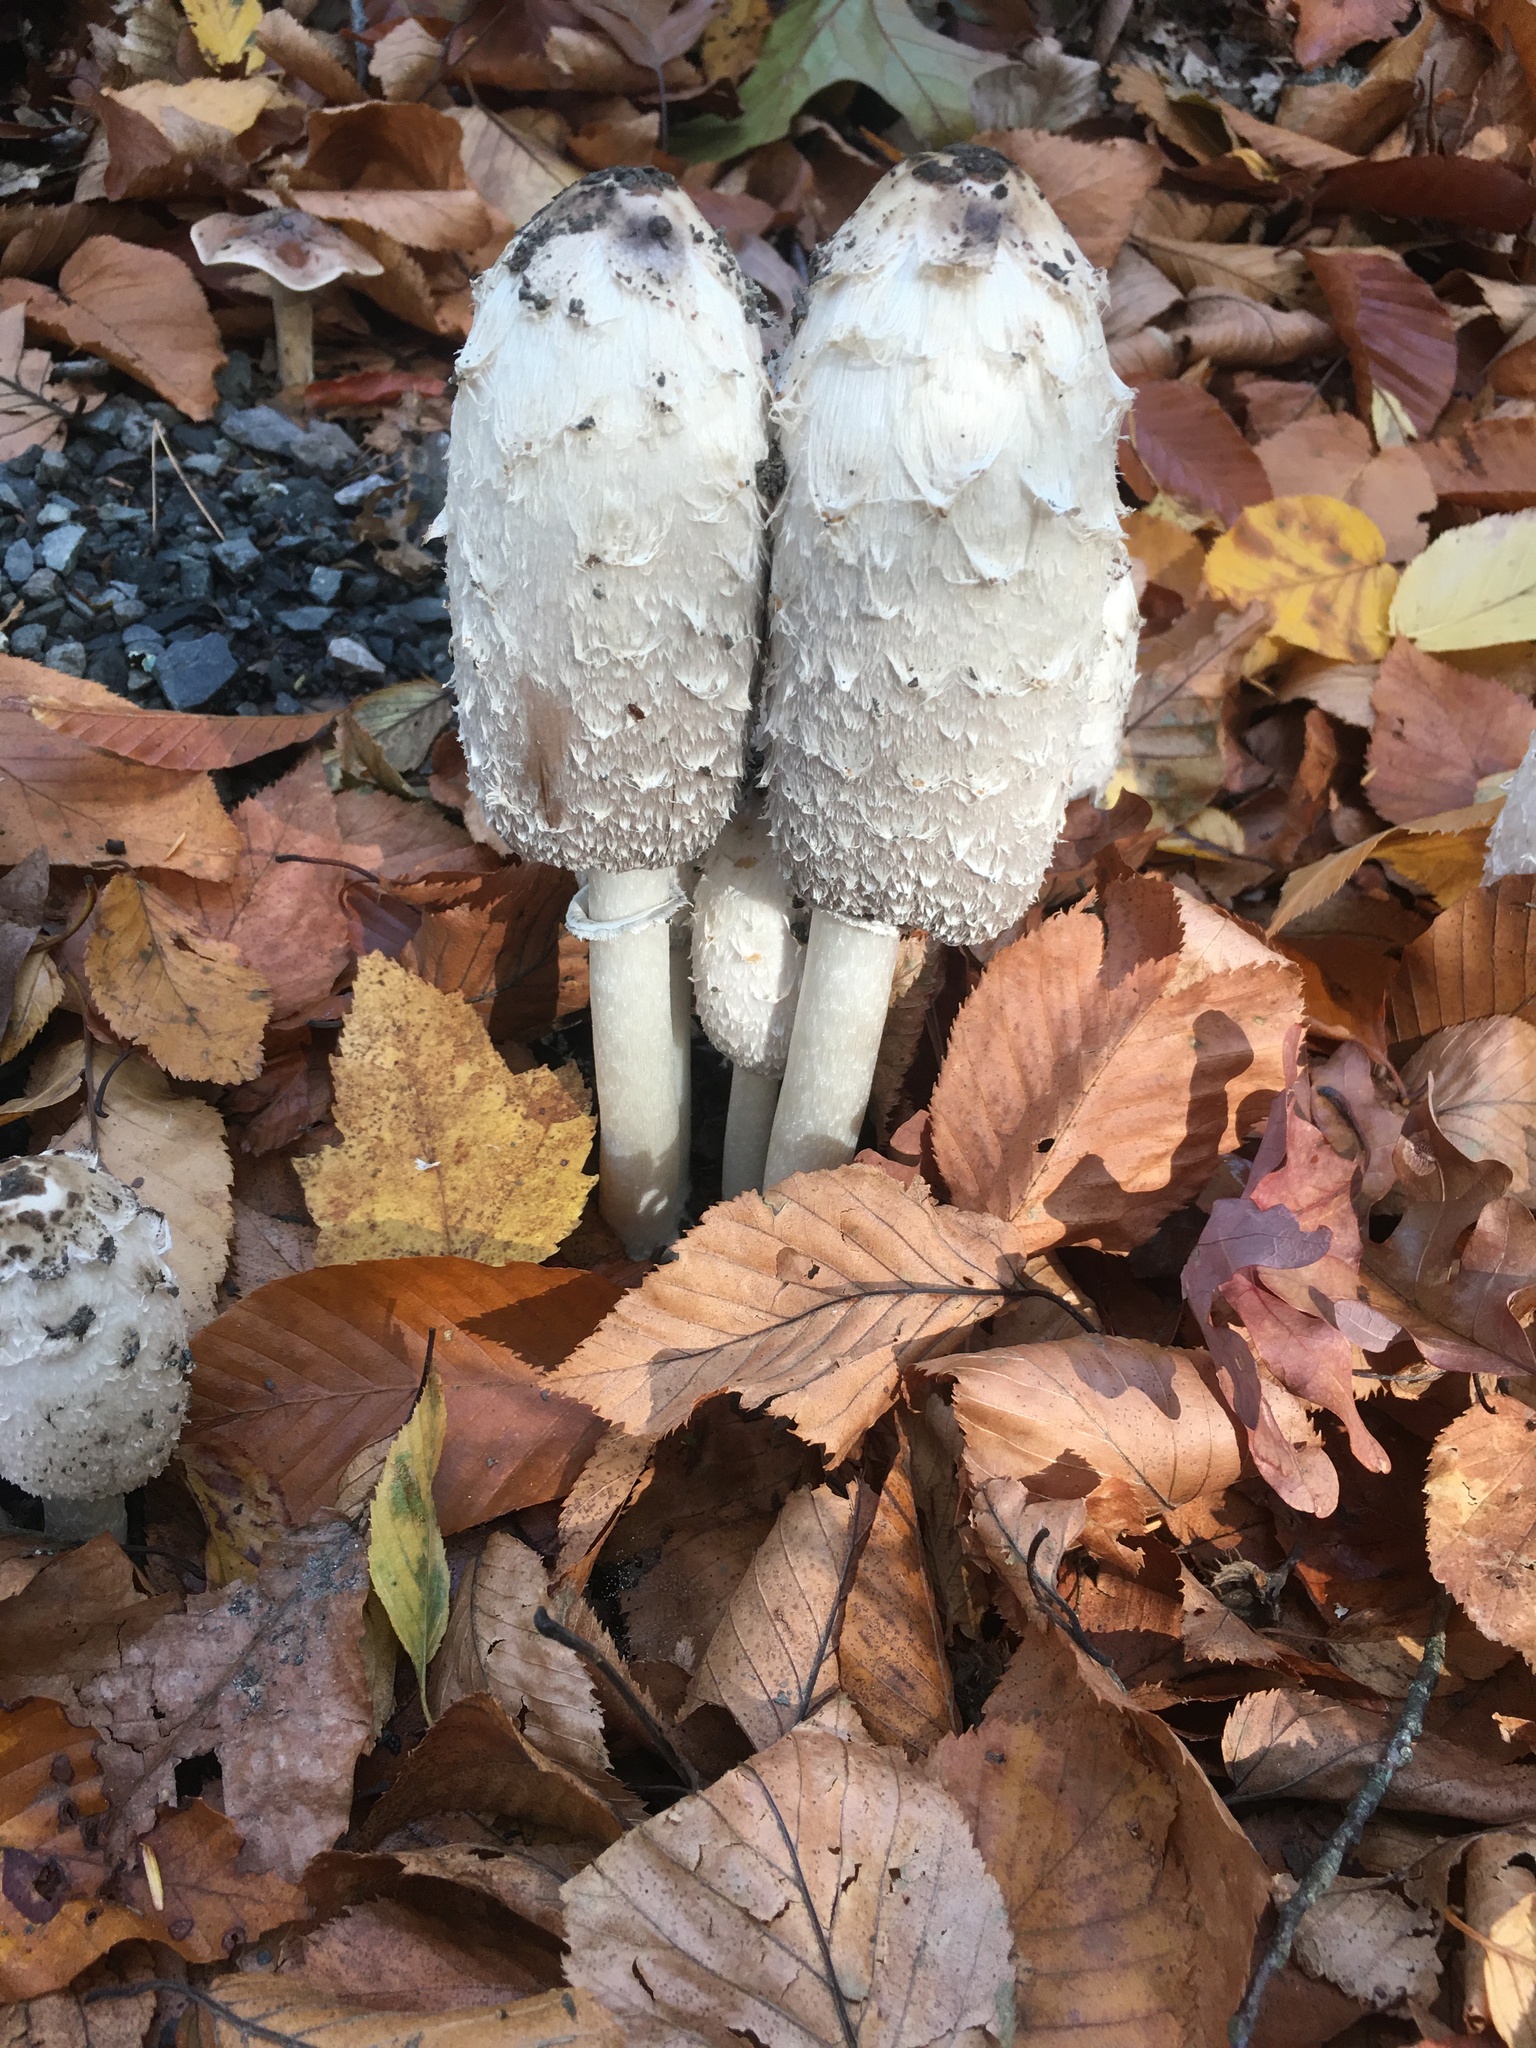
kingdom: Fungi
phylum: Basidiomycota
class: Agaricomycetes
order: Agaricales
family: Agaricaceae
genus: Coprinus
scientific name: Coprinus comatus
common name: Lawyer's wig
